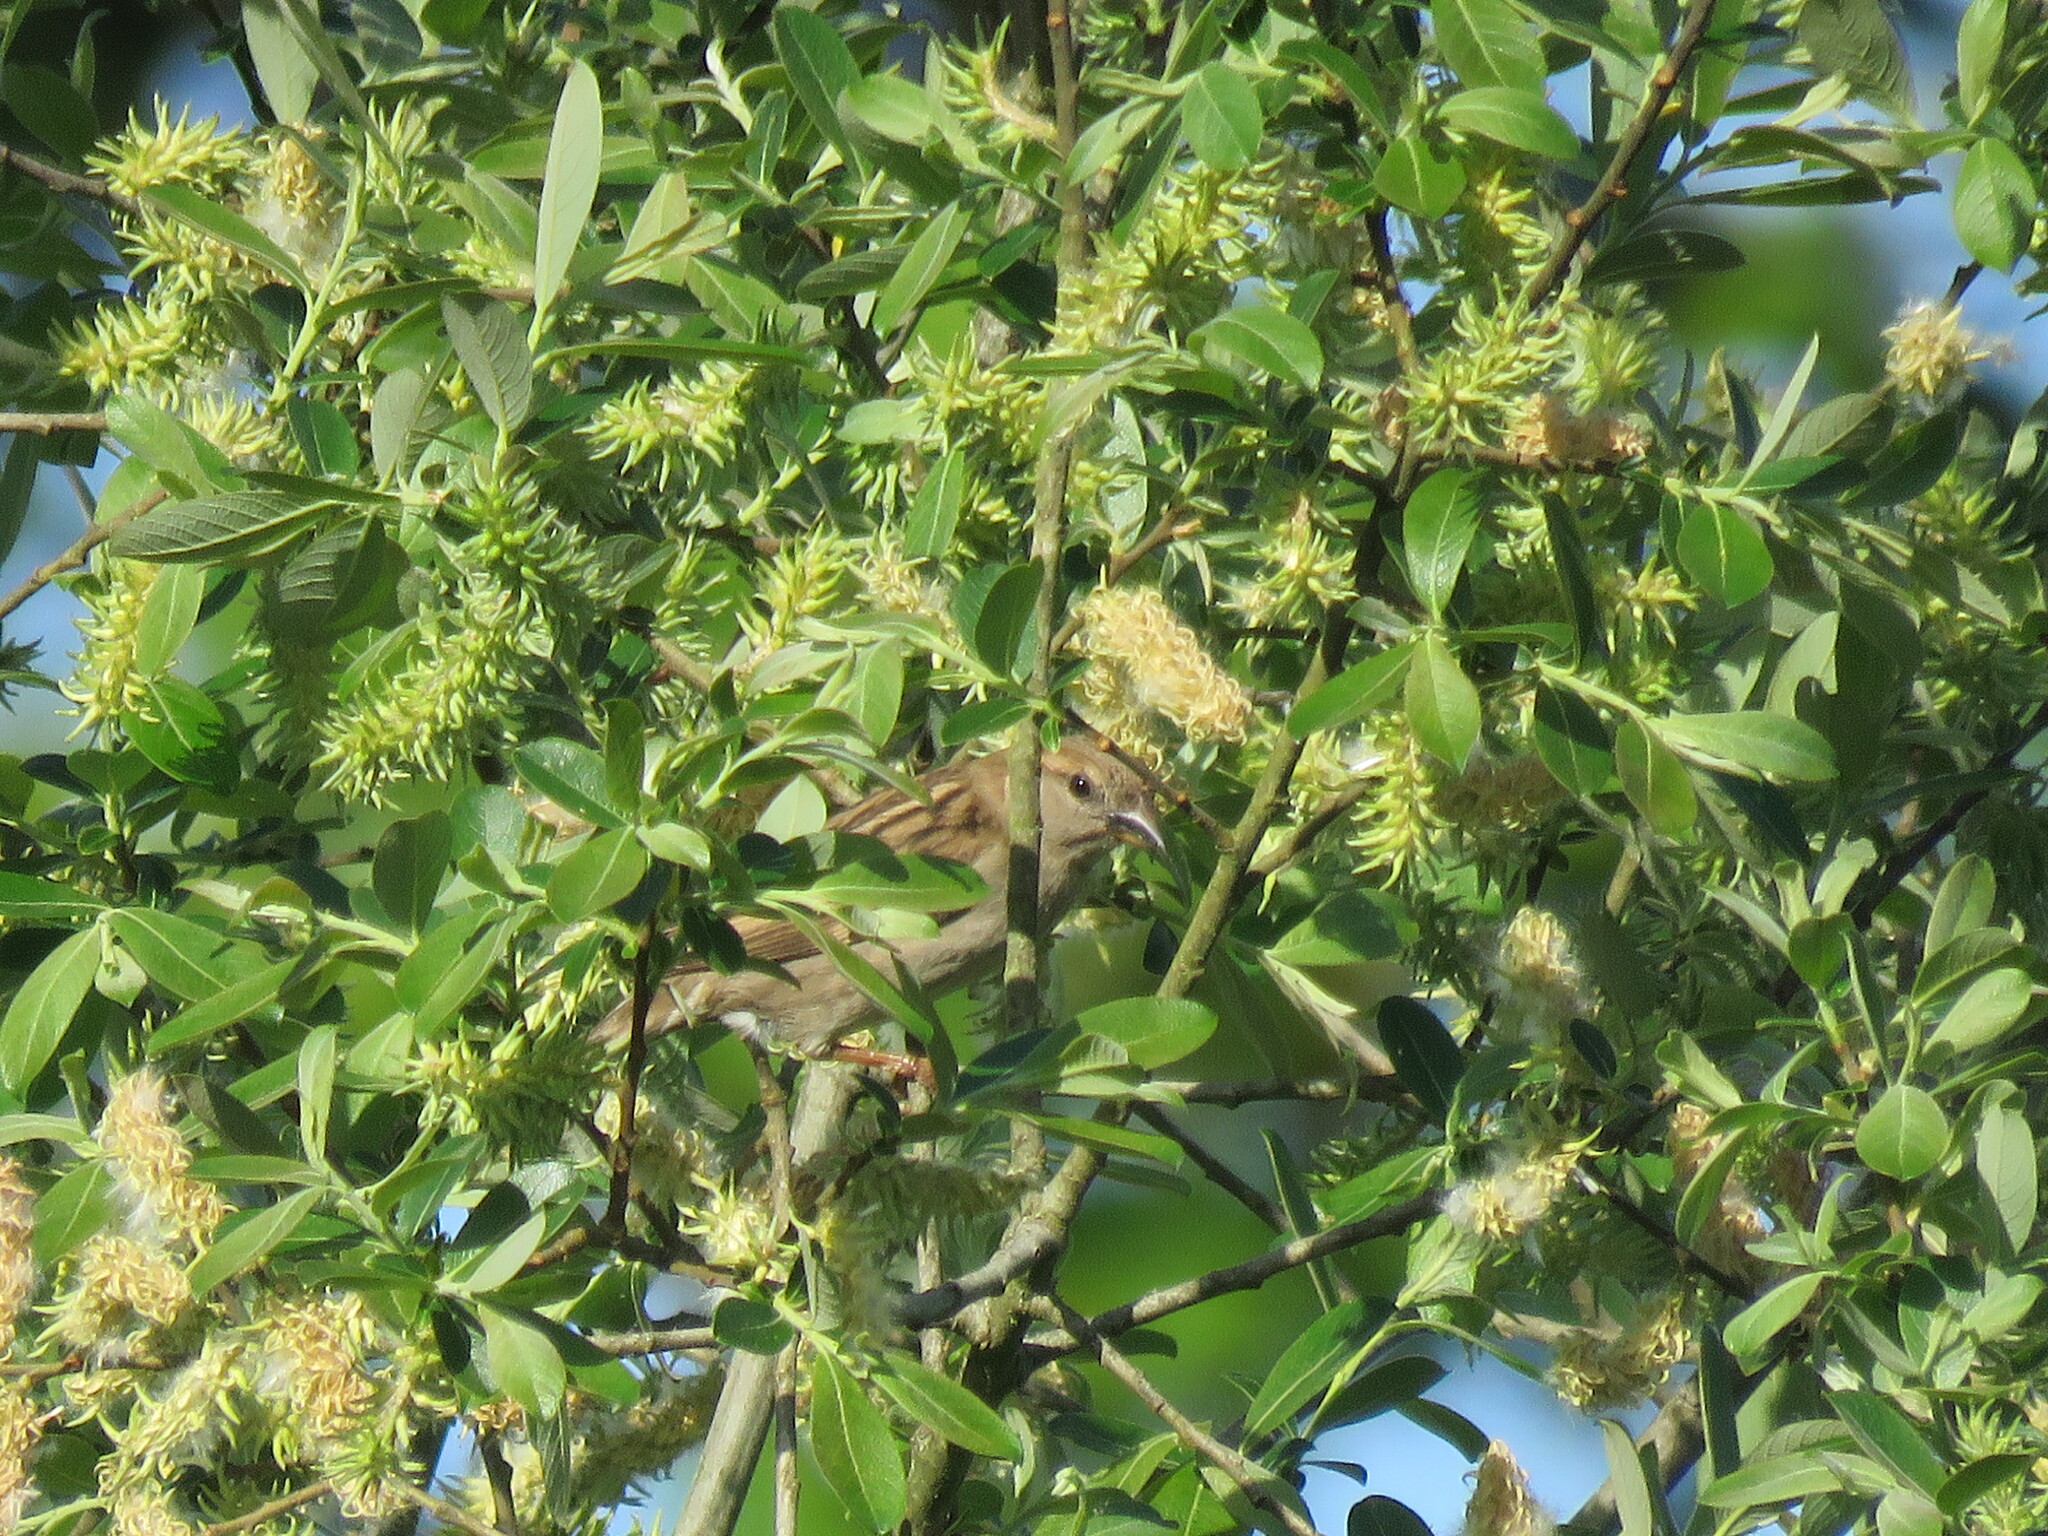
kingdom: Animalia
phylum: Chordata
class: Aves
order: Passeriformes
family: Passeridae
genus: Passer
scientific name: Passer domesticus
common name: House sparrow
